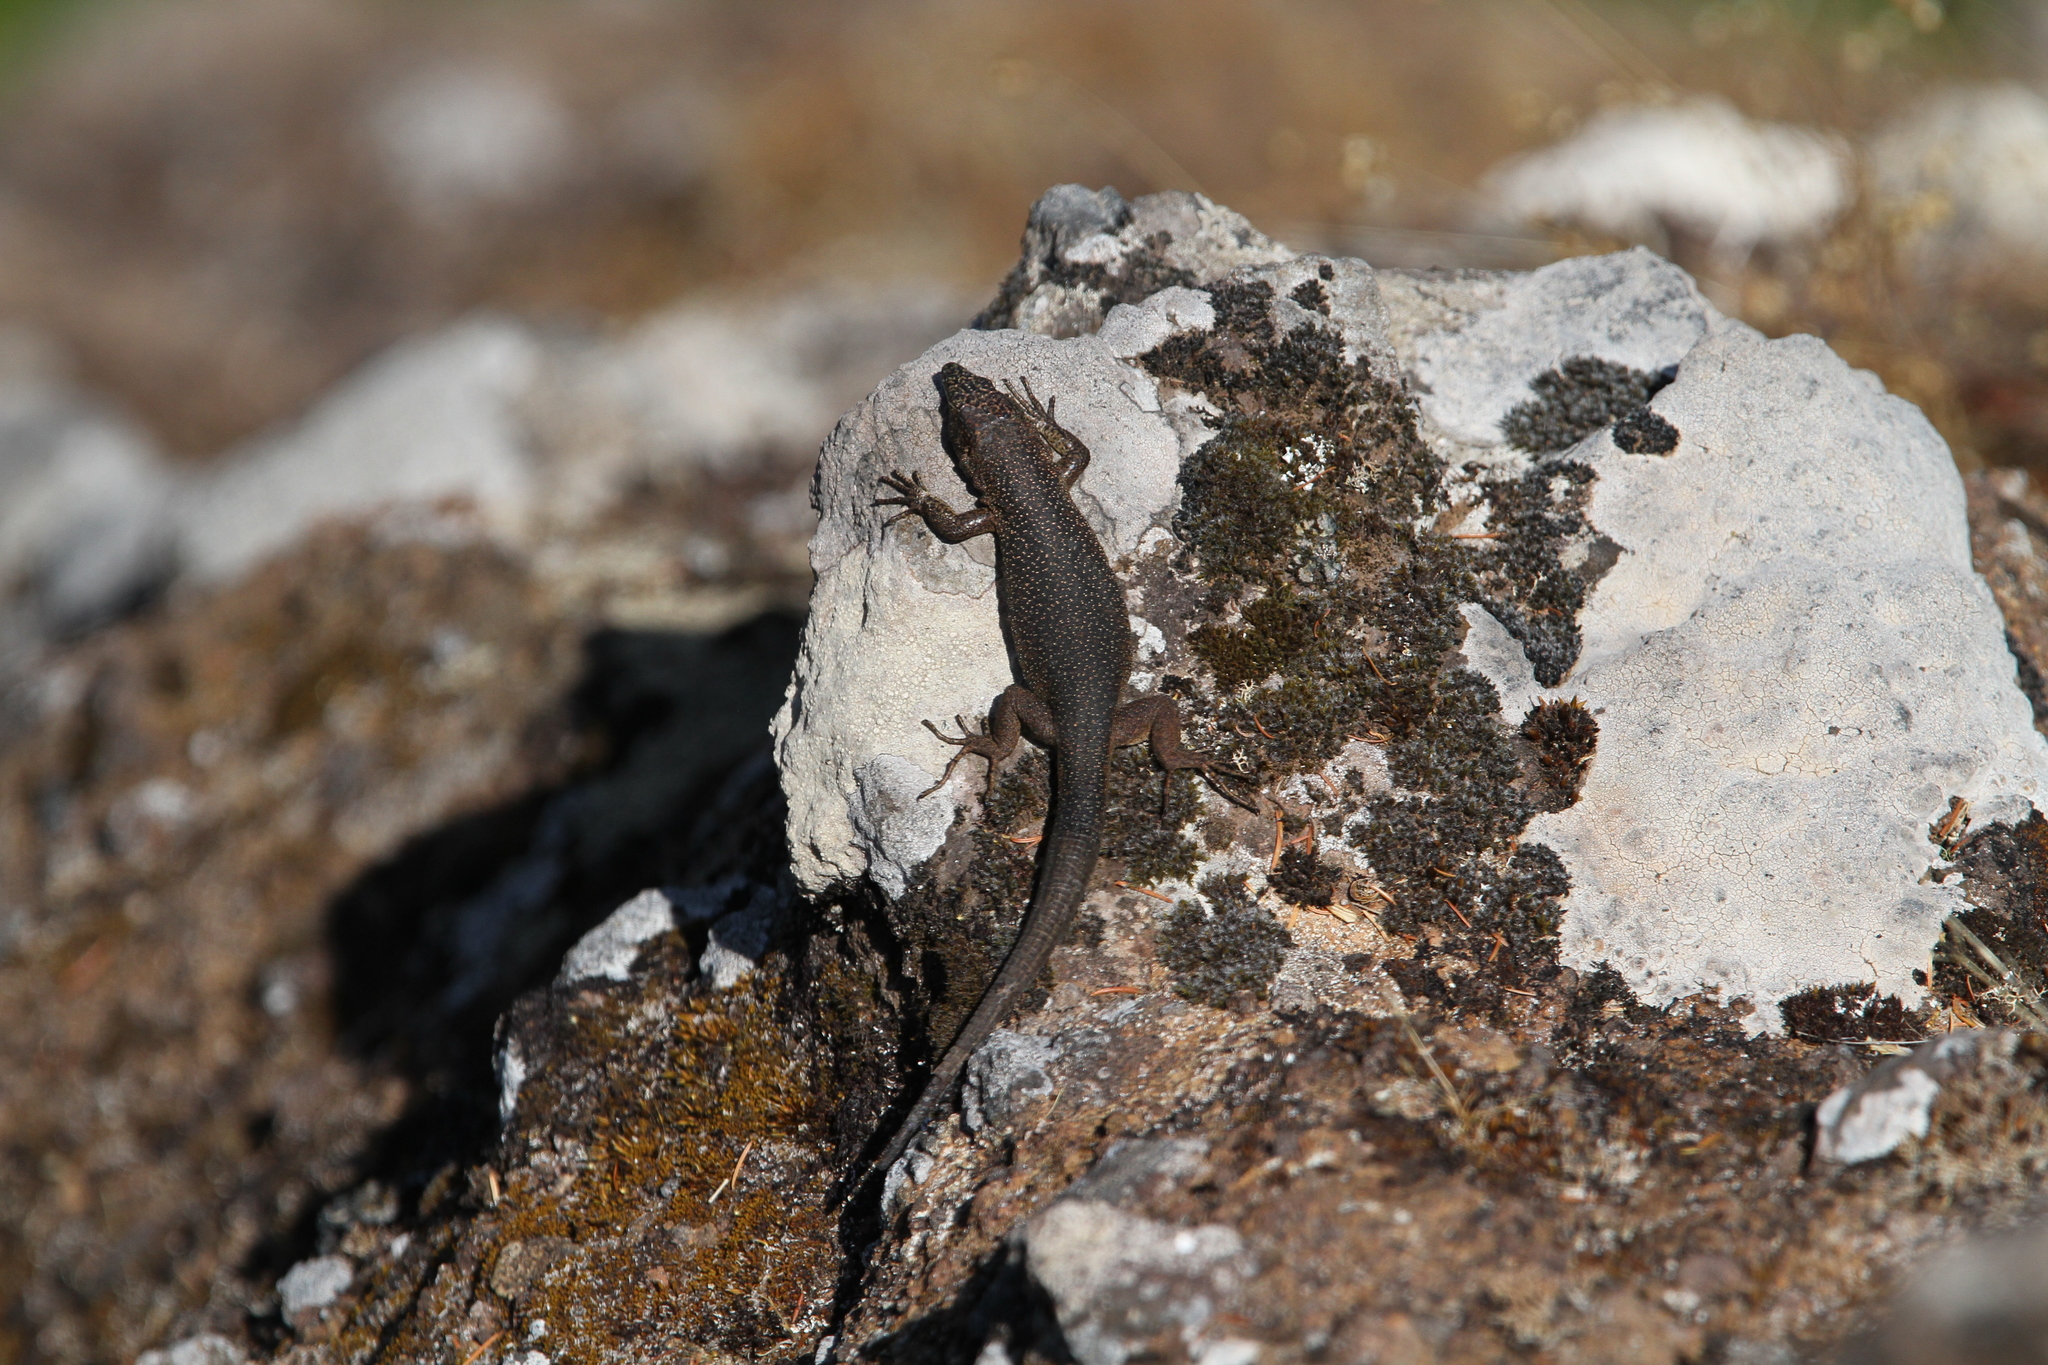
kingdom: Animalia
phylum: Chordata
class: Squamata
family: Lacertidae
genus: Teira
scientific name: Teira dugesii
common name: Madeira lizard
